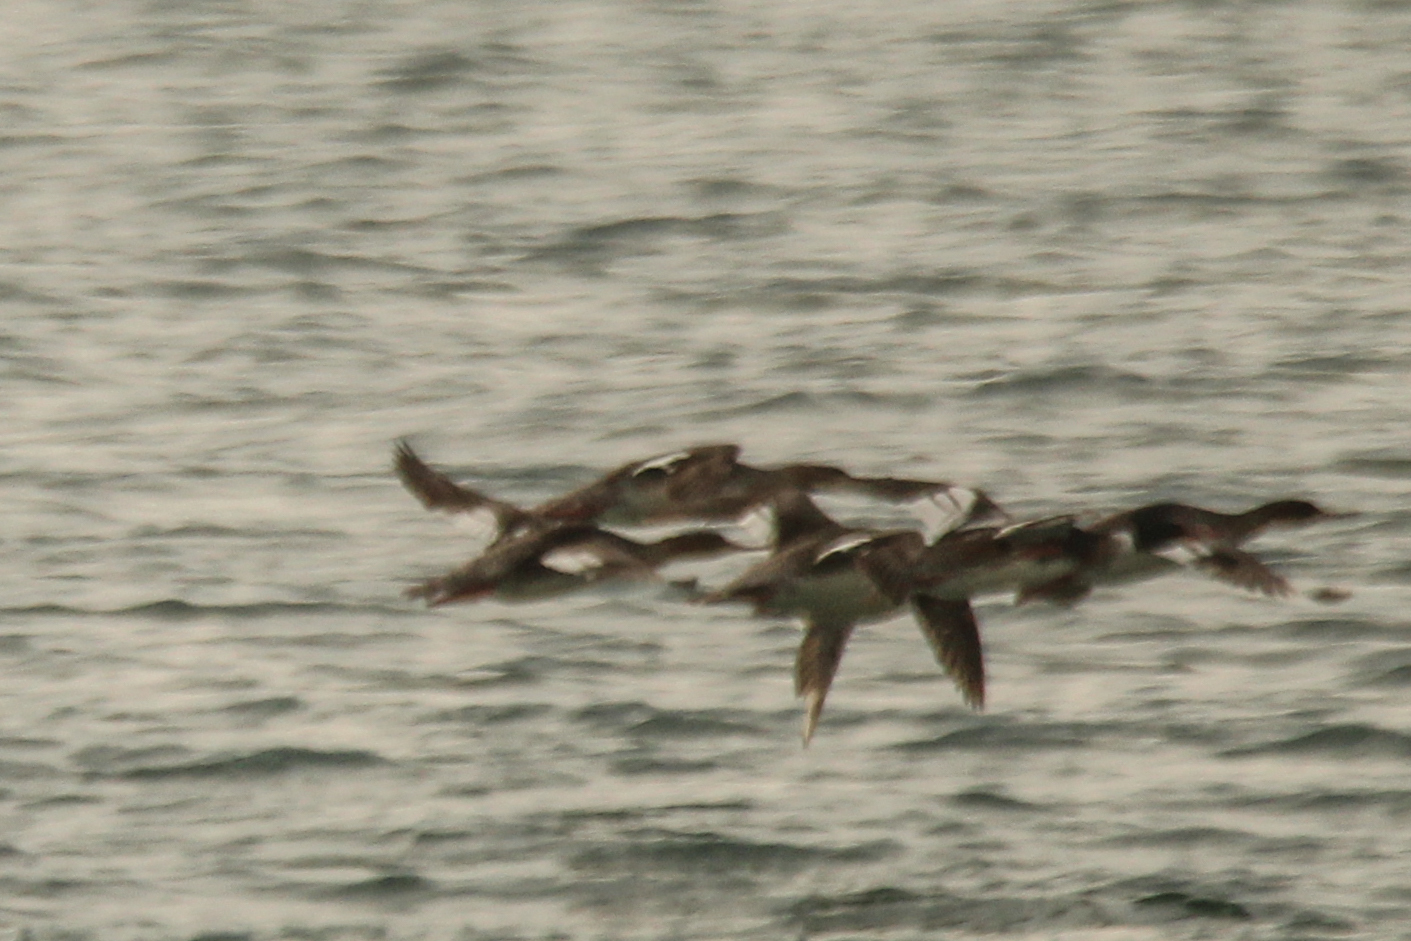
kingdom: Animalia
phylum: Chordata
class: Aves
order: Anseriformes
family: Anatidae
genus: Mergus
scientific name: Mergus serrator
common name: Red-breasted merganser
